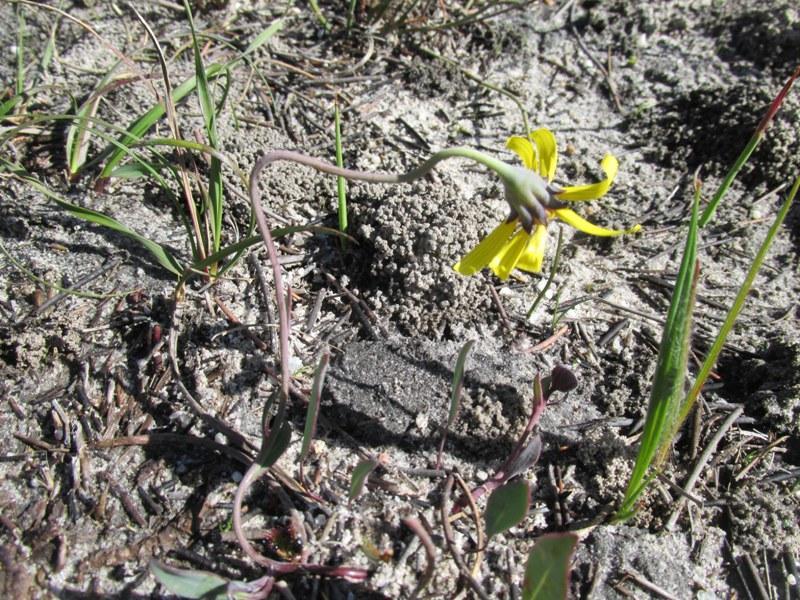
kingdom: Plantae
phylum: Tracheophyta
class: Magnoliopsida
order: Asterales
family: Asteraceae
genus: Othonna
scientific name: Othonna pinnata
